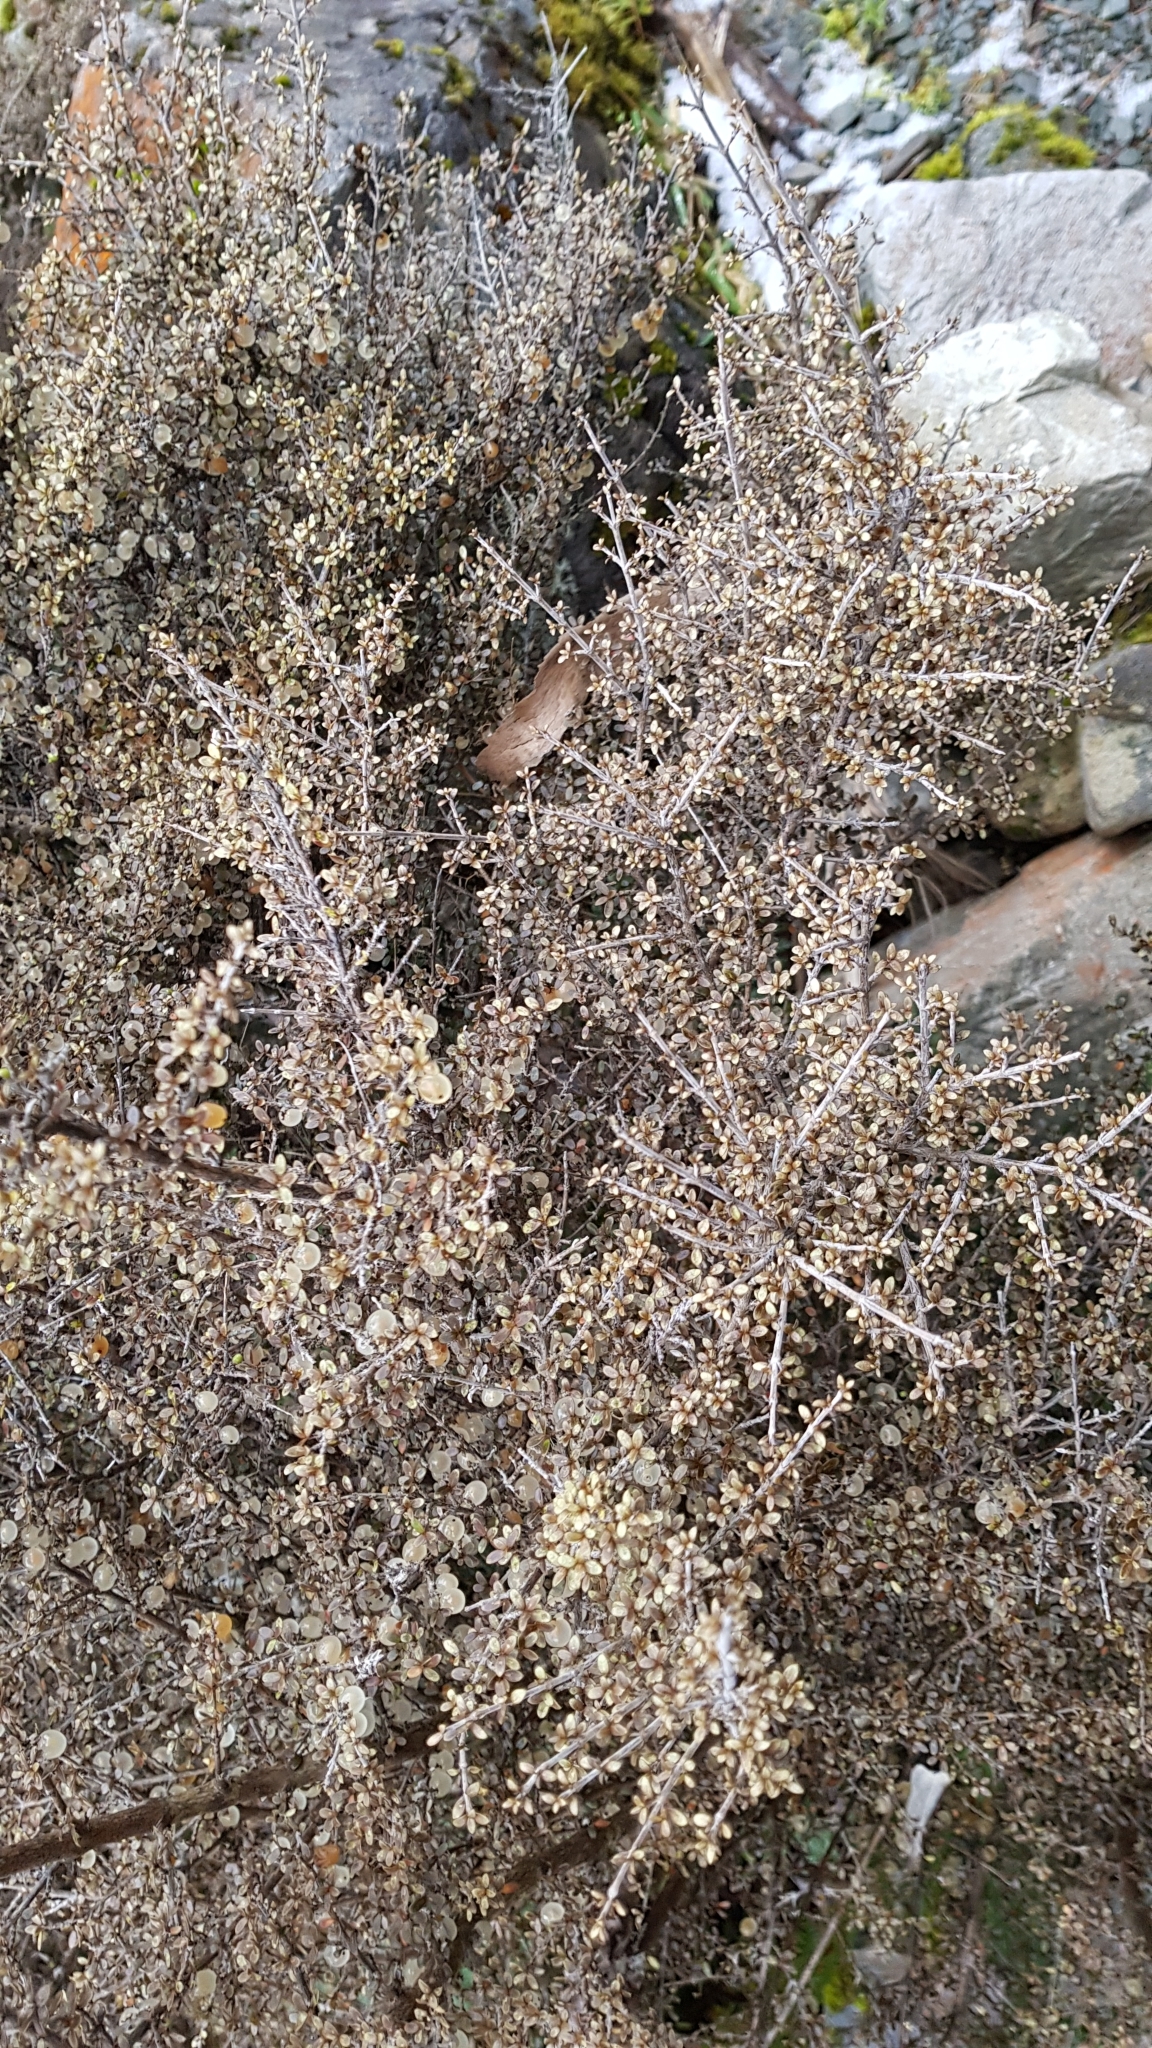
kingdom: Plantae
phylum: Tracheophyta
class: Magnoliopsida
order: Gentianales
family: Rubiaceae
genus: Coprosma
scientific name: Coprosma dumosa
